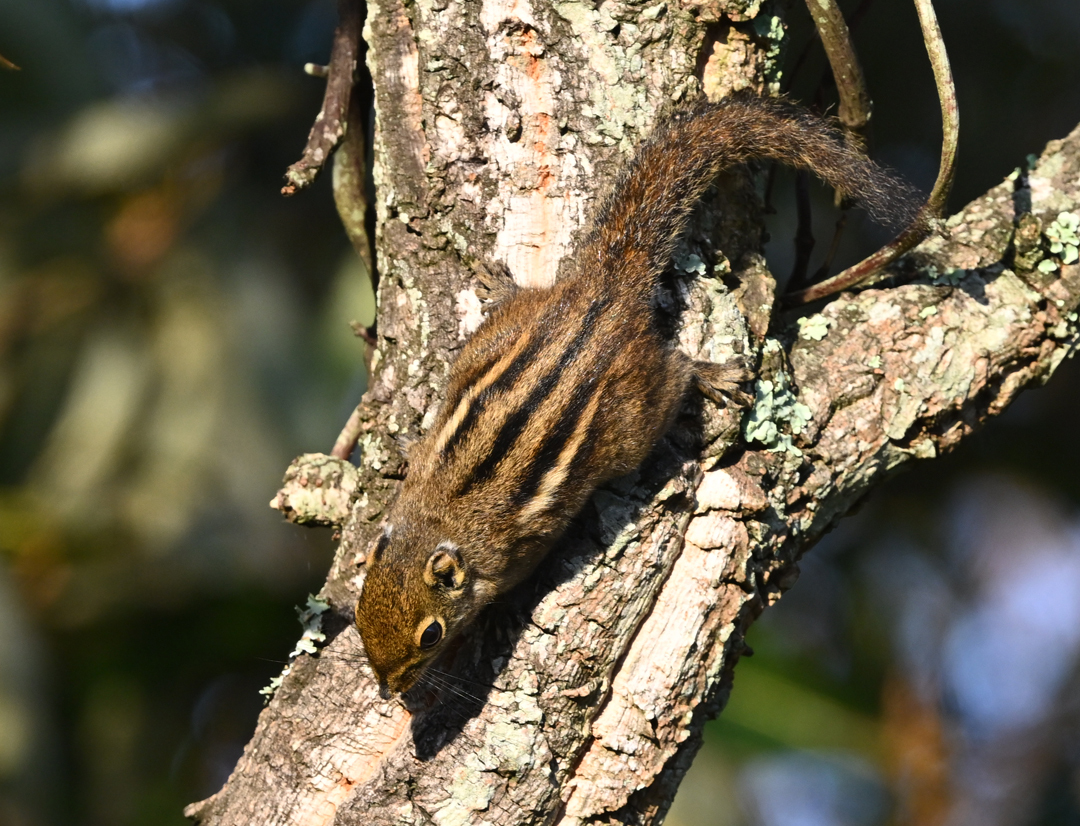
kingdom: Animalia
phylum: Chordata
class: Mammalia
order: Rodentia
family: Sciuridae
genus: Tamiops
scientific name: Tamiops maritimus
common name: Maritime striped squirrel
